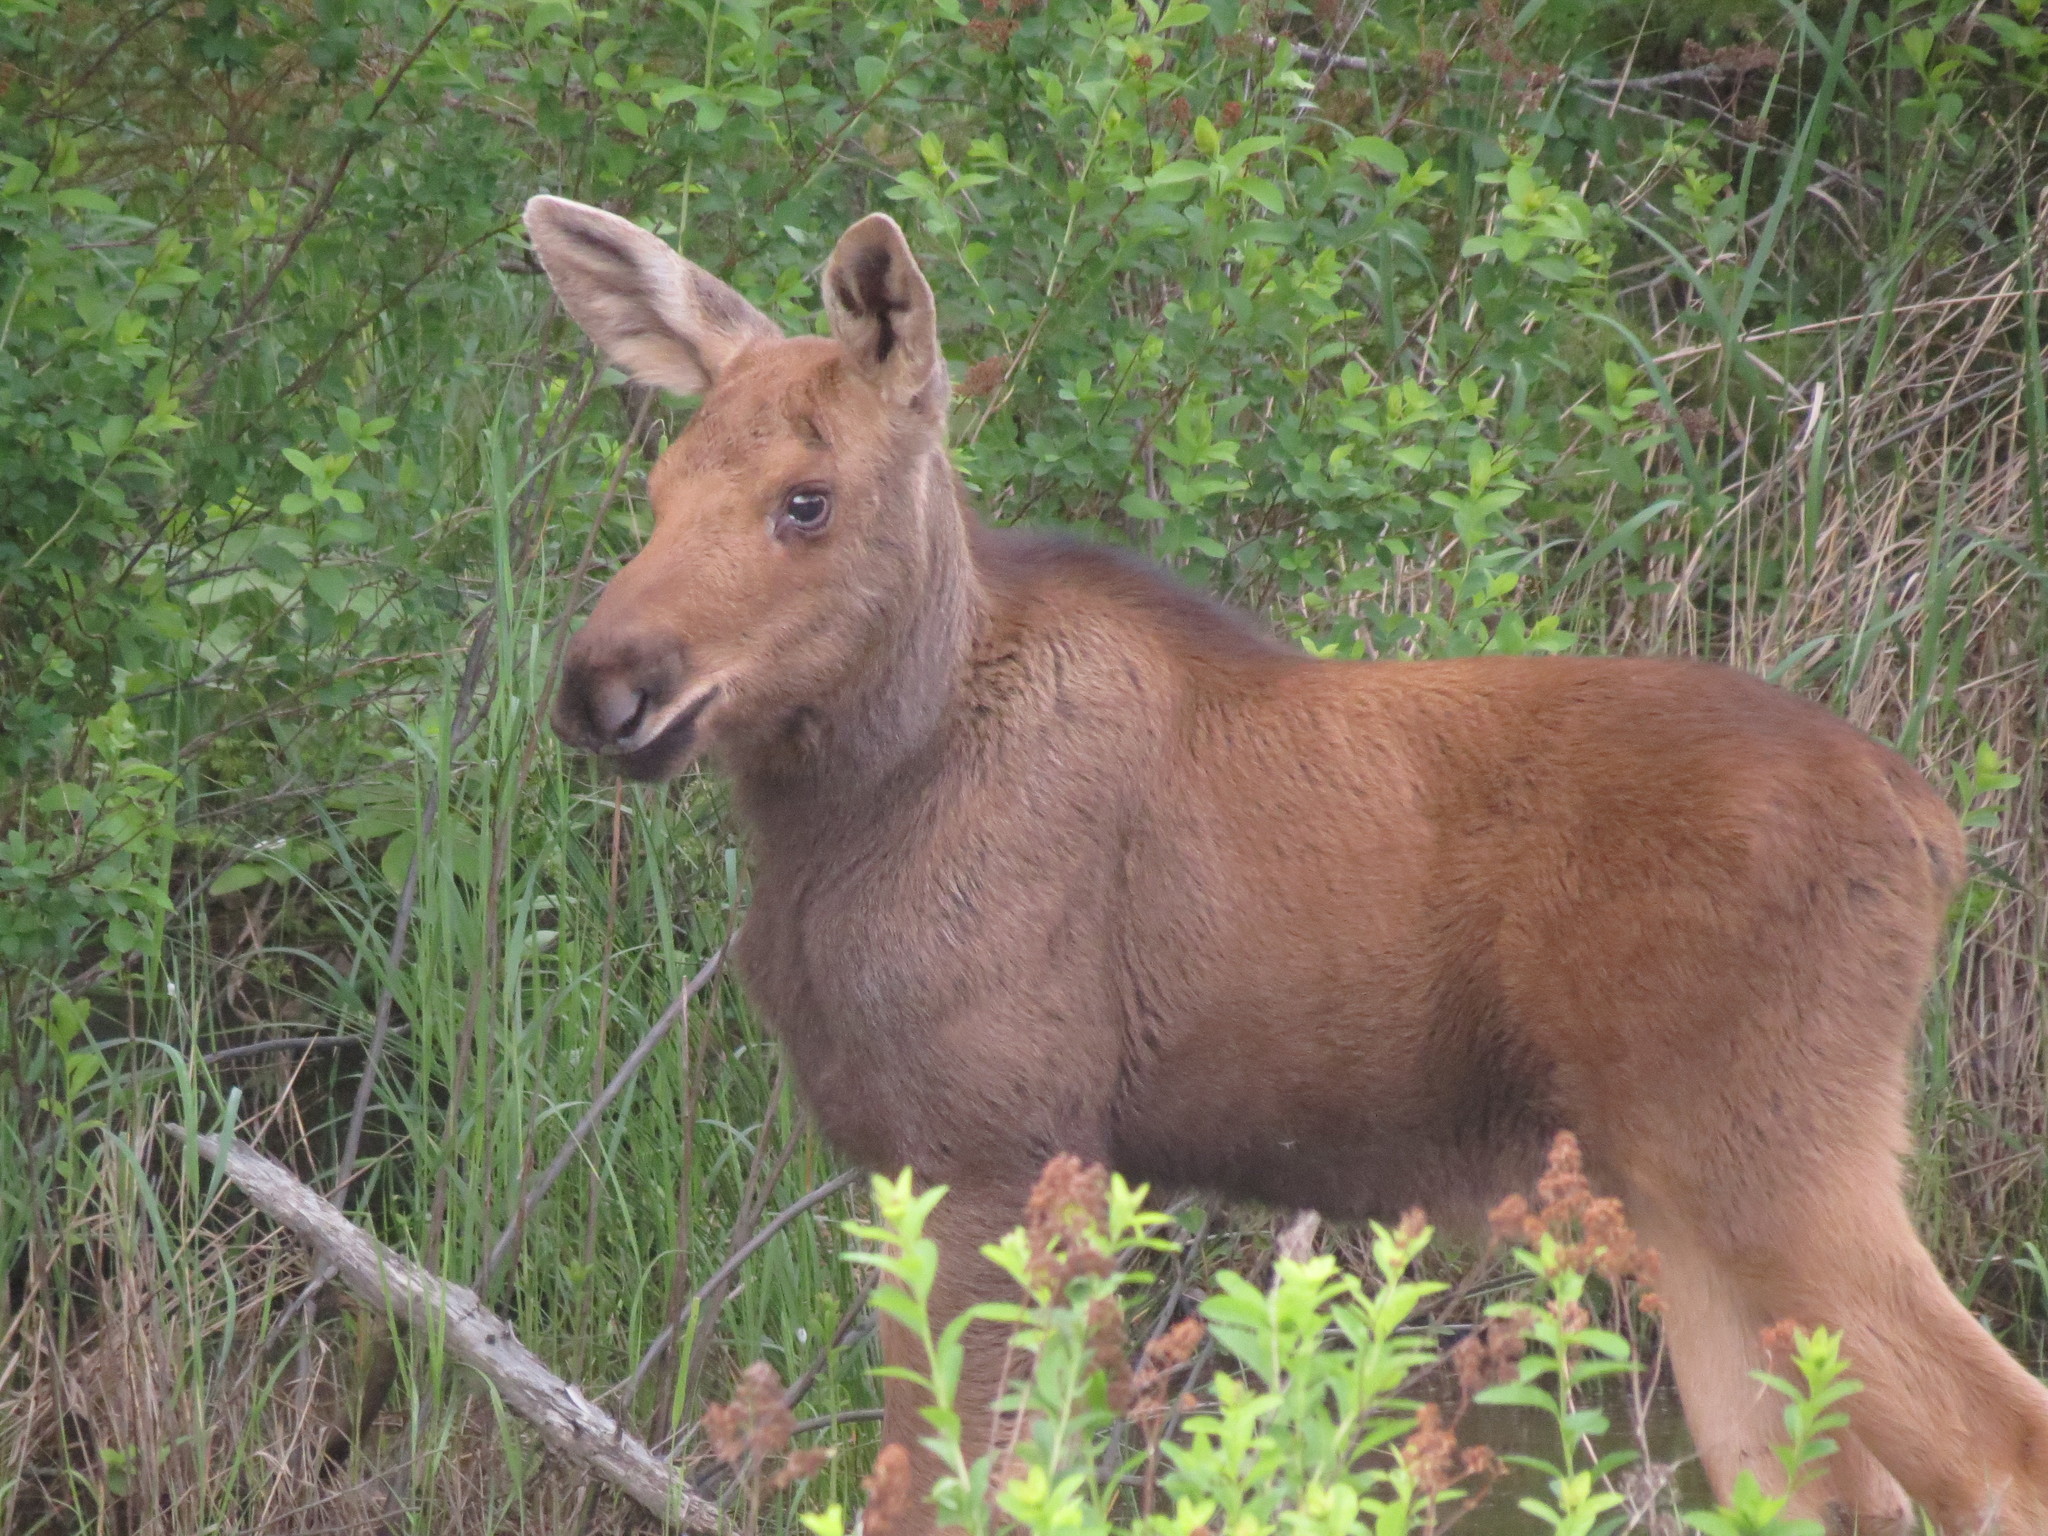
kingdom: Animalia
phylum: Chordata
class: Mammalia
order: Artiodactyla
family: Cervidae
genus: Alces
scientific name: Alces alces
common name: Moose
